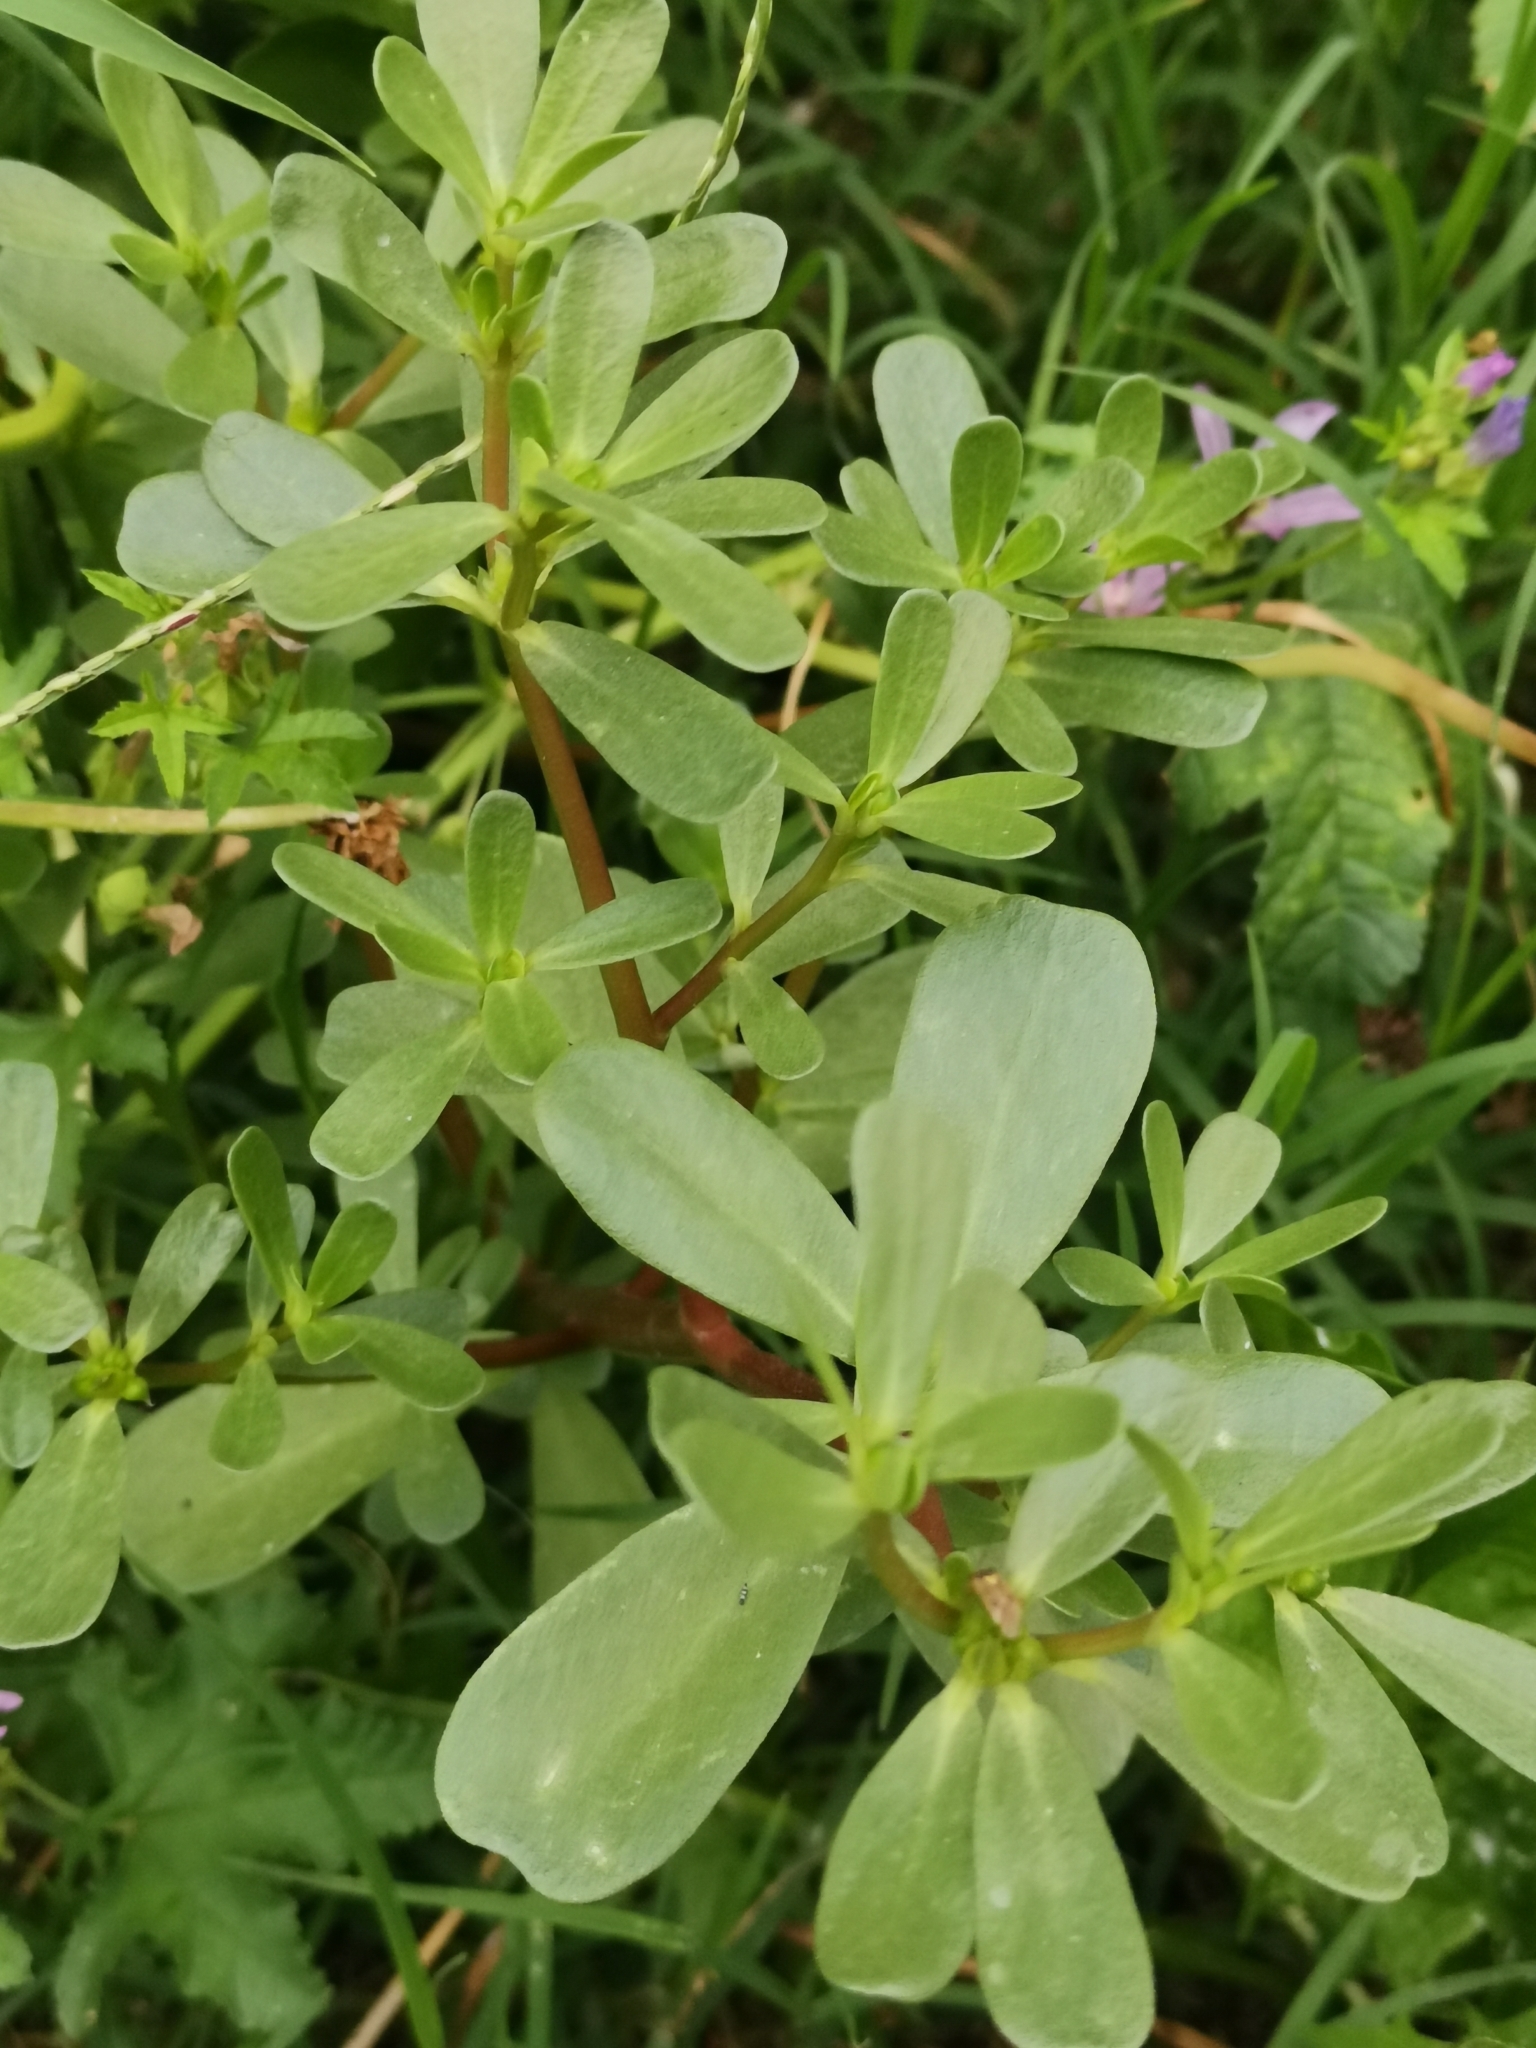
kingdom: Plantae
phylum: Tracheophyta
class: Magnoliopsida
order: Caryophyllales
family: Portulacaceae
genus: Portulaca
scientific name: Portulaca oleracea
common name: Common purslane
